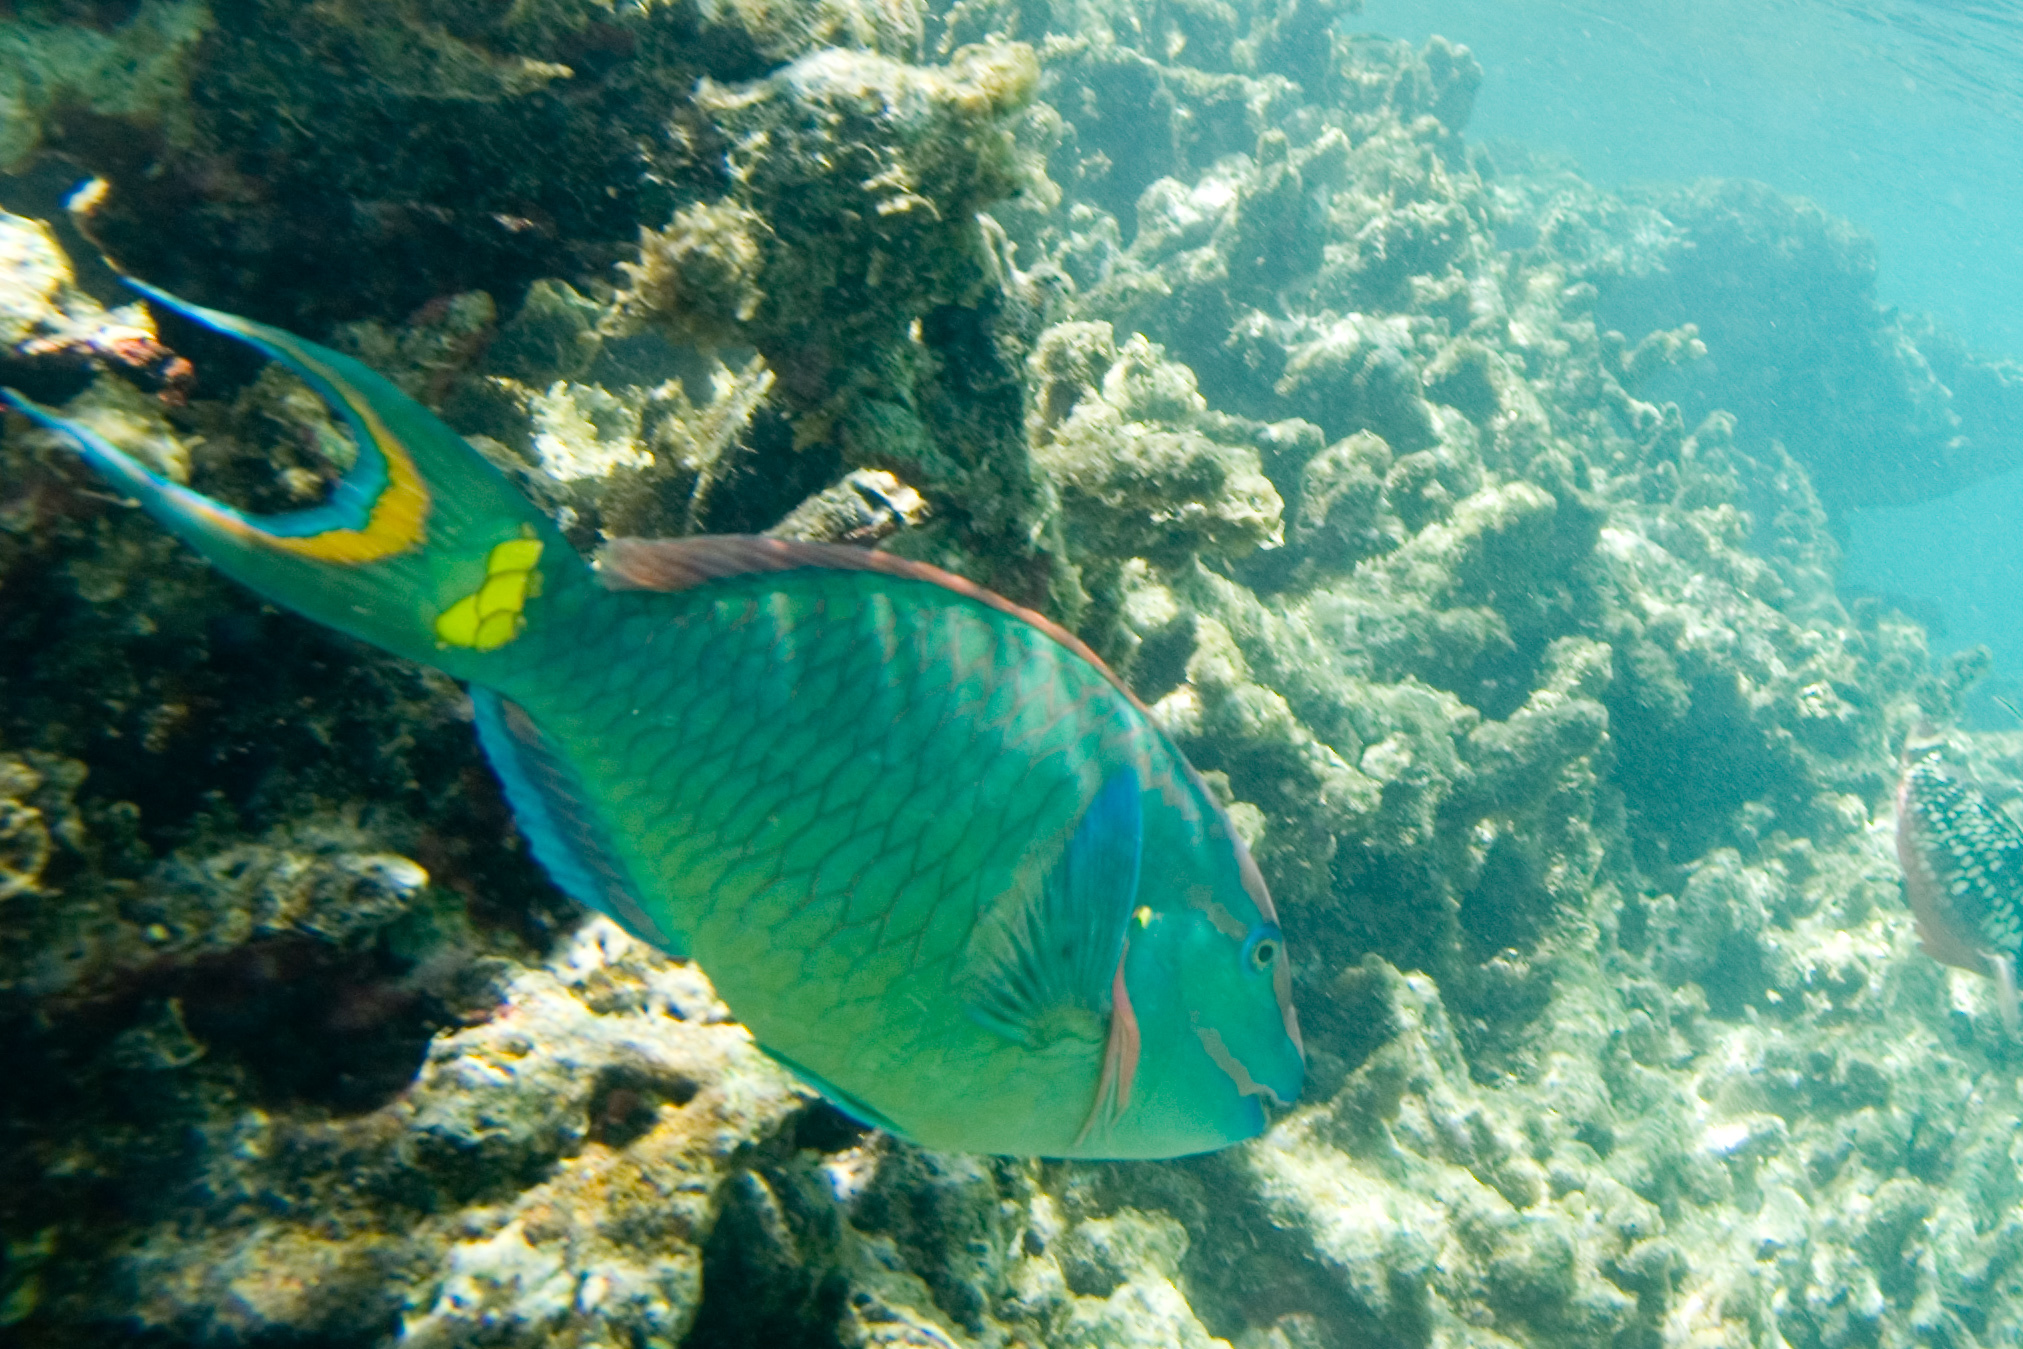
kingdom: Animalia
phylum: Chordata
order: Perciformes
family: Scaridae
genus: Sparisoma
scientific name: Sparisoma viride
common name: Stoplight parrotfish
